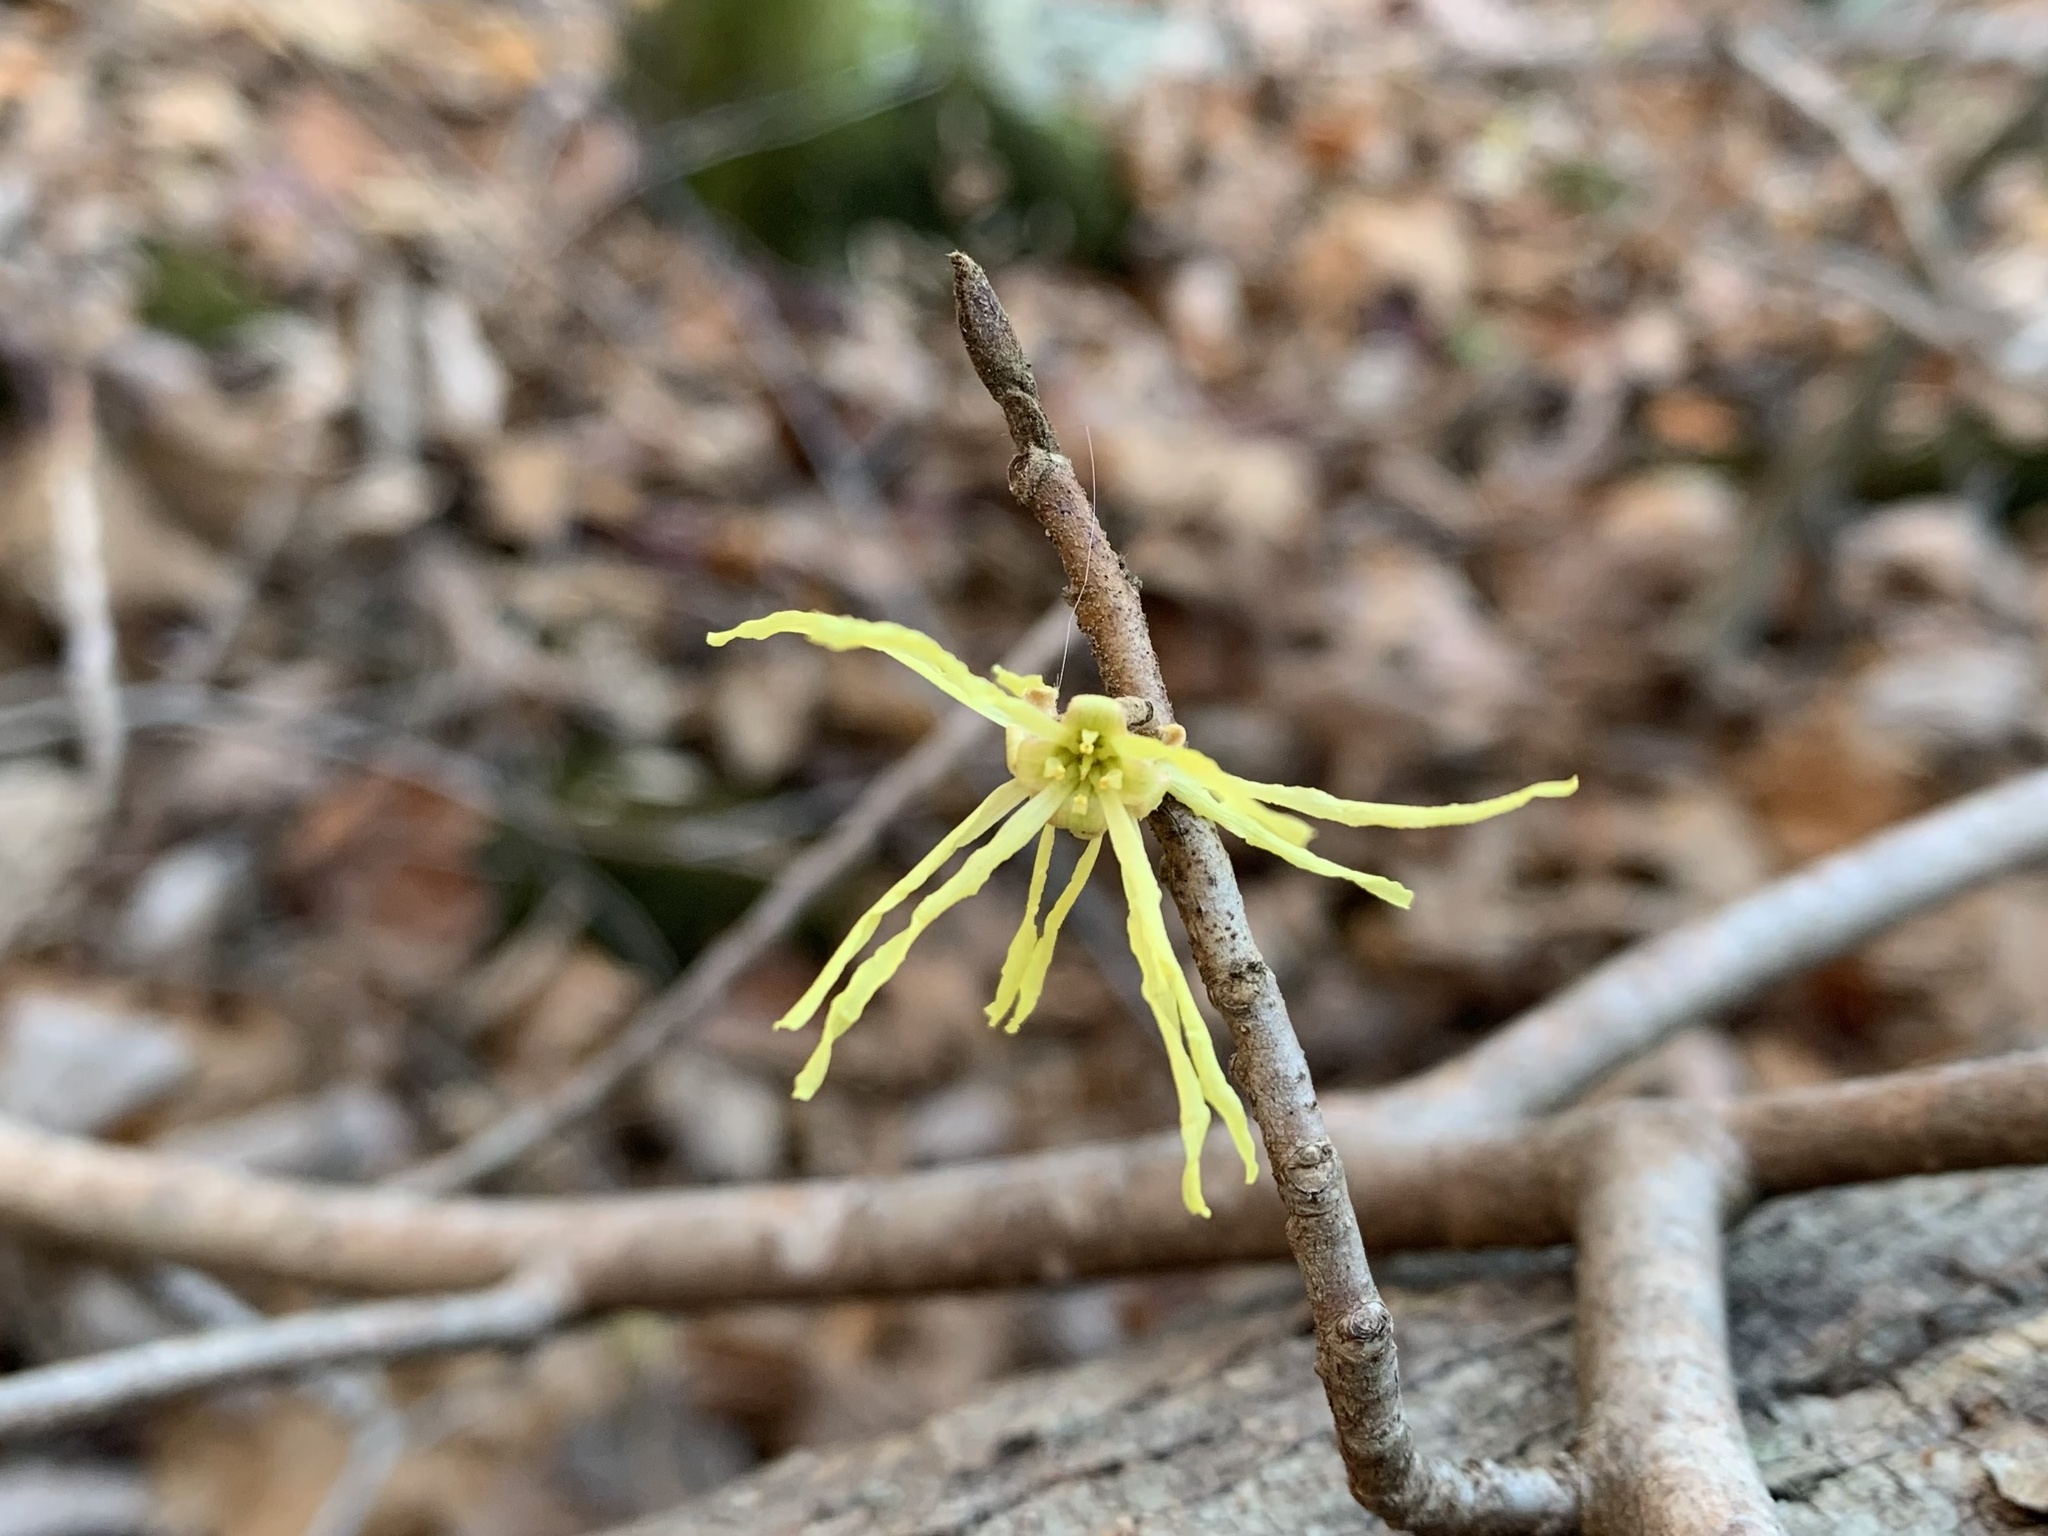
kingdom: Plantae
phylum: Tracheophyta
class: Magnoliopsida
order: Saxifragales
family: Hamamelidaceae
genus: Hamamelis
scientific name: Hamamelis virginiana
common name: Witch-hazel
